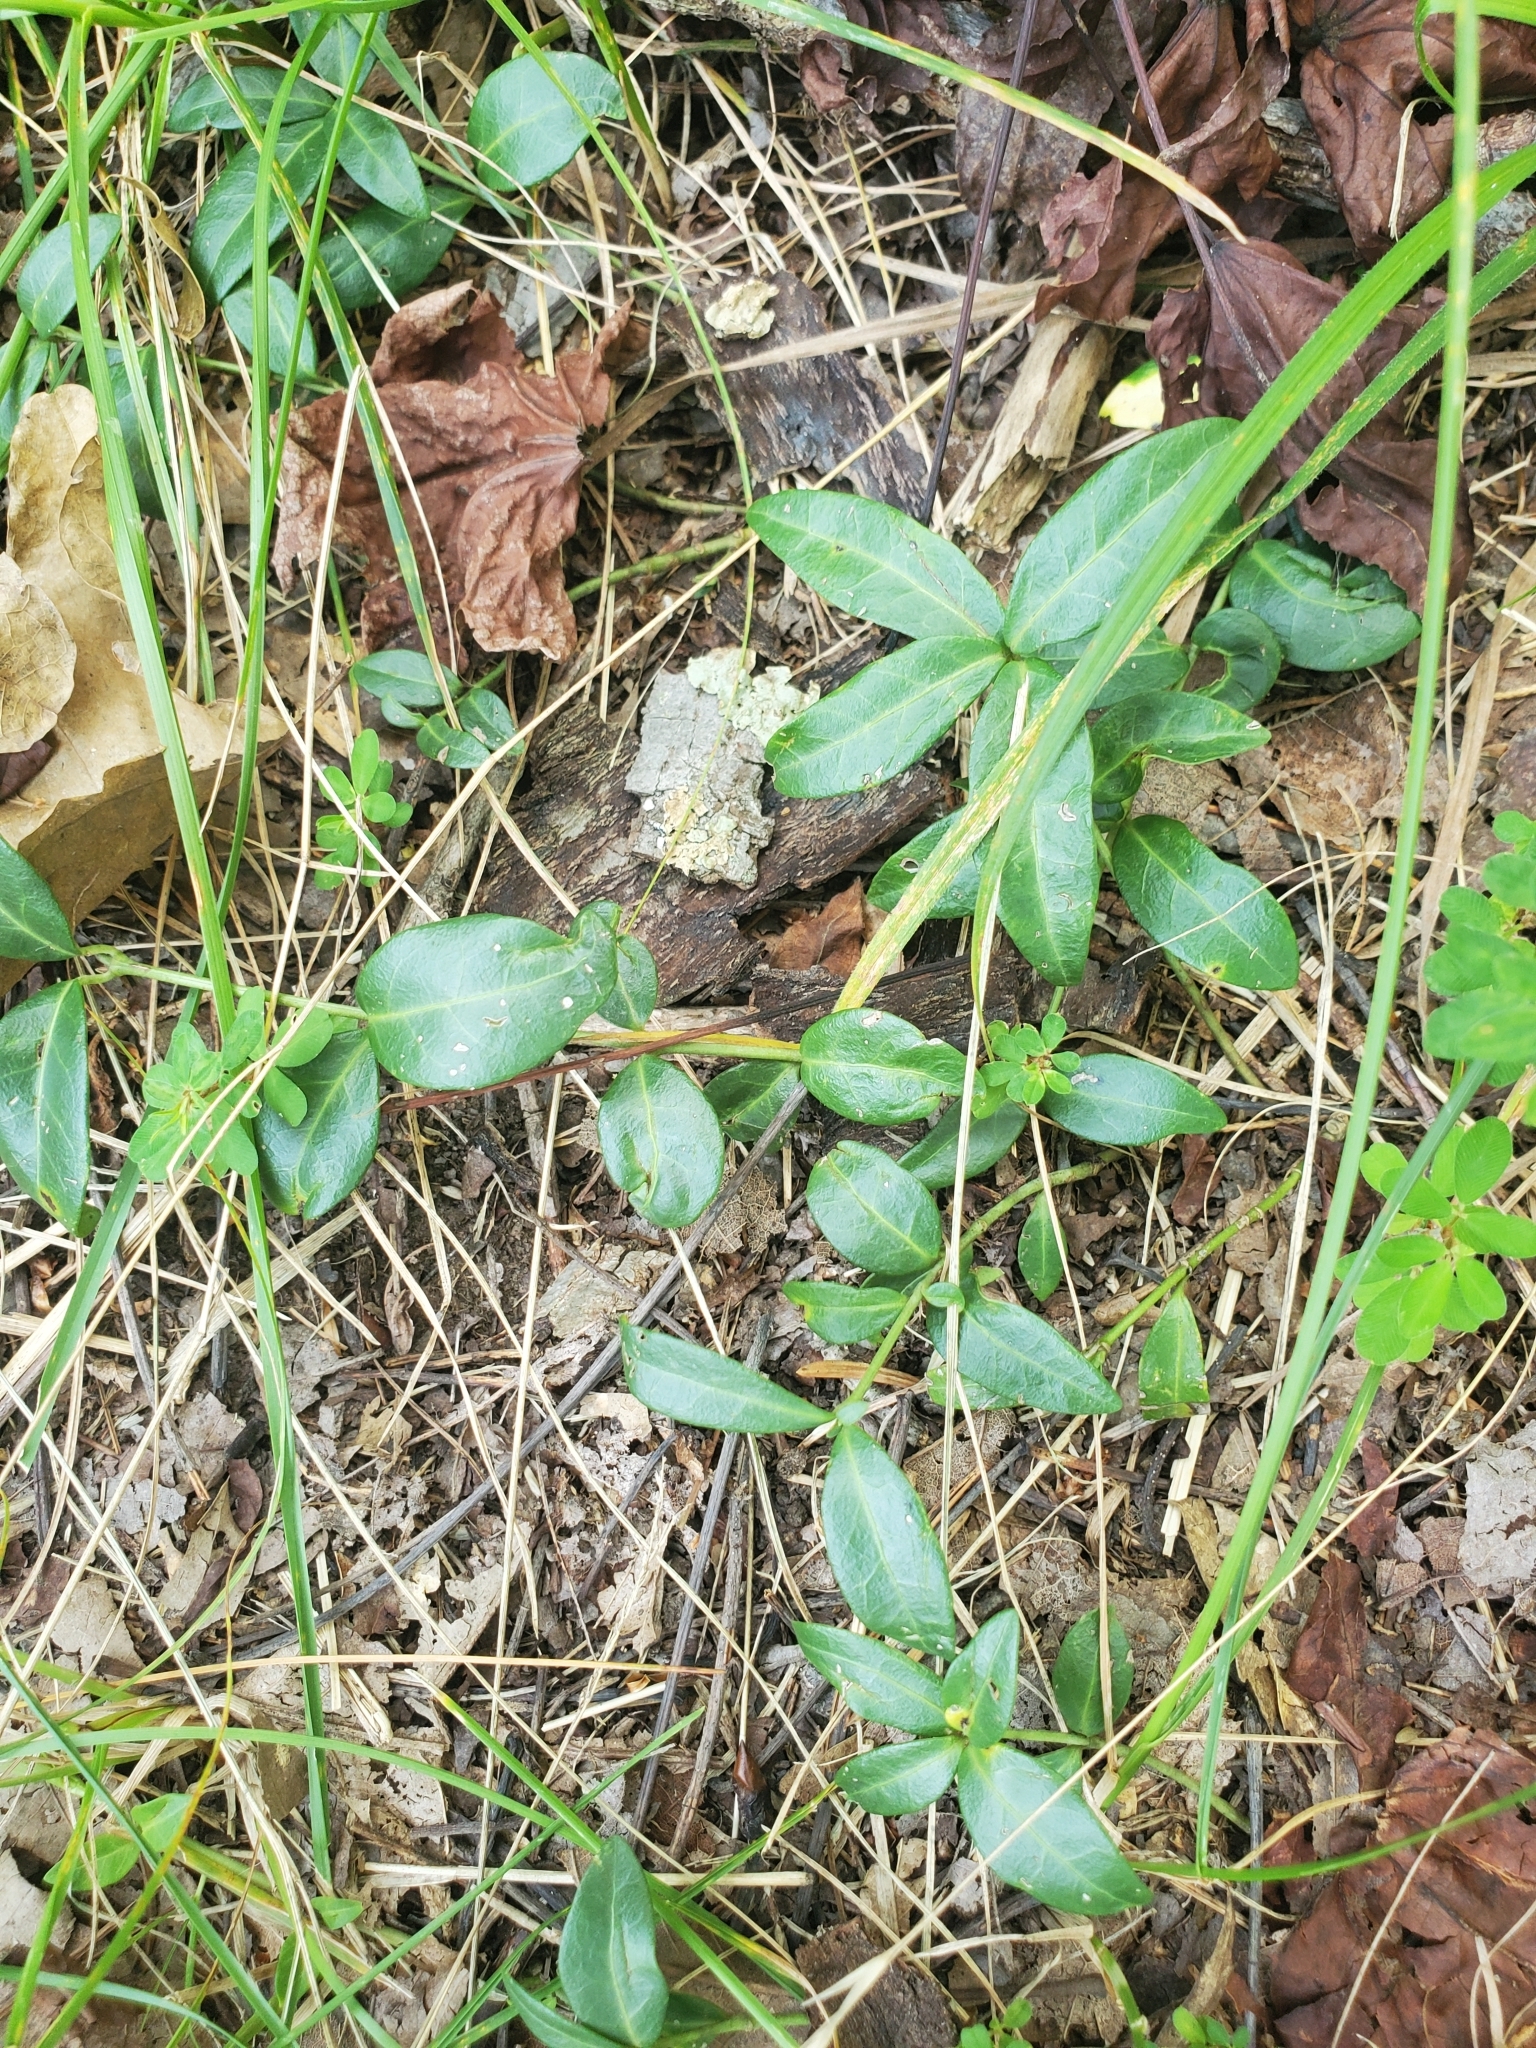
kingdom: Plantae
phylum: Tracheophyta
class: Magnoliopsida
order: Gentianales
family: Apocynaceae
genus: Vinca
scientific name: Vinca minor
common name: Lesser periwinkle
